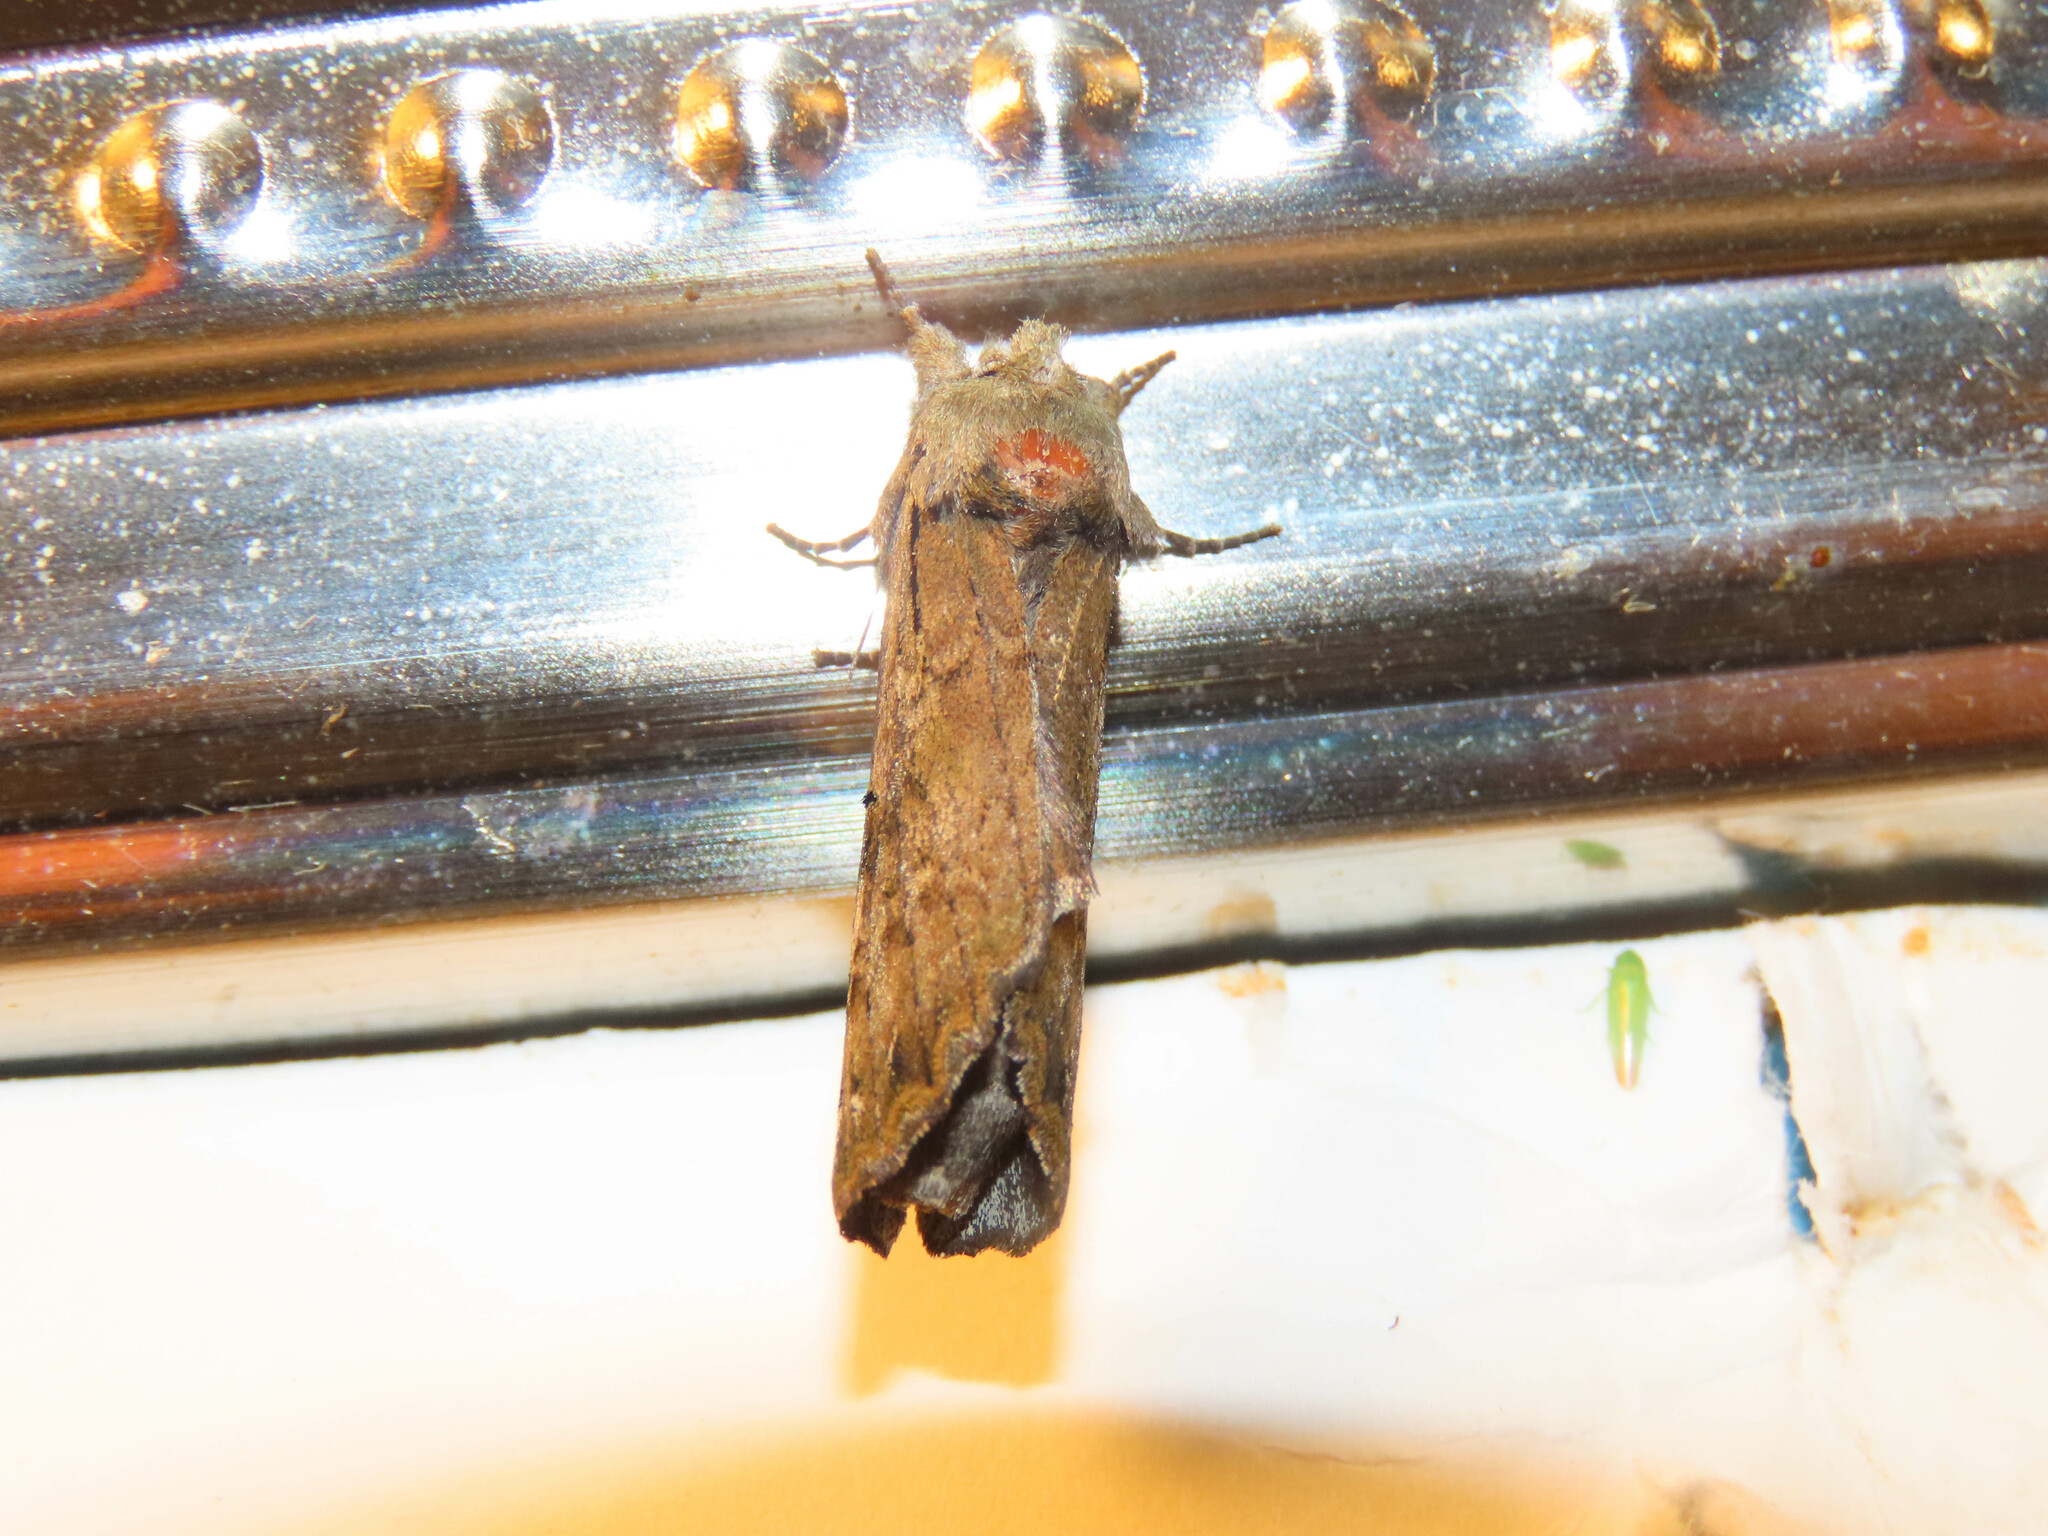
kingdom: Animalia
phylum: Arthropoda
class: Insecta
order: Lepidoptera
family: Notodontidae
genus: Schizura
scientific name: Schizura
